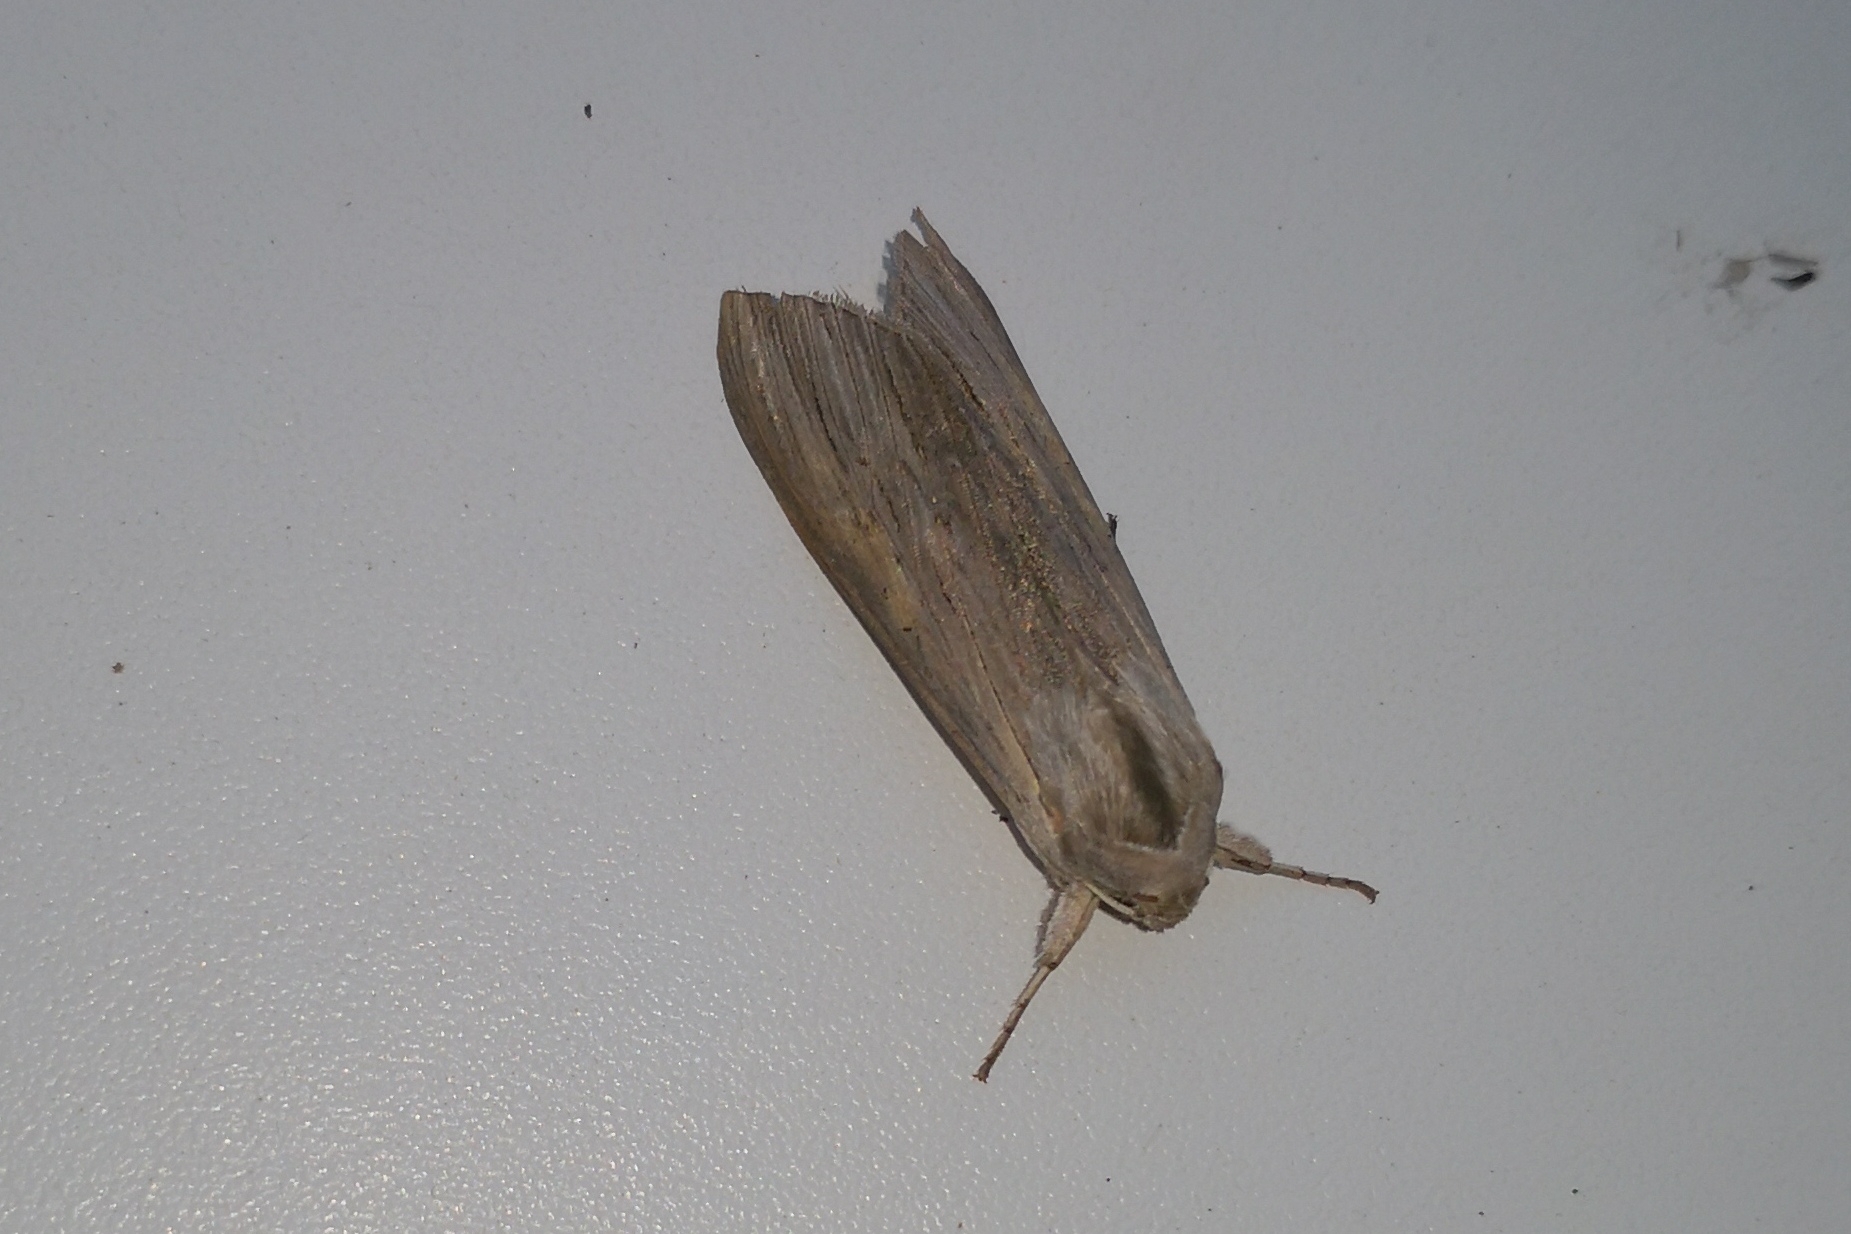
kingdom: Animalia
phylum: Arthropoda
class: Insecta
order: Lepidoptera
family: Noctuidae
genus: Cucullia
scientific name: Cucullia umbratica
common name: Shark
